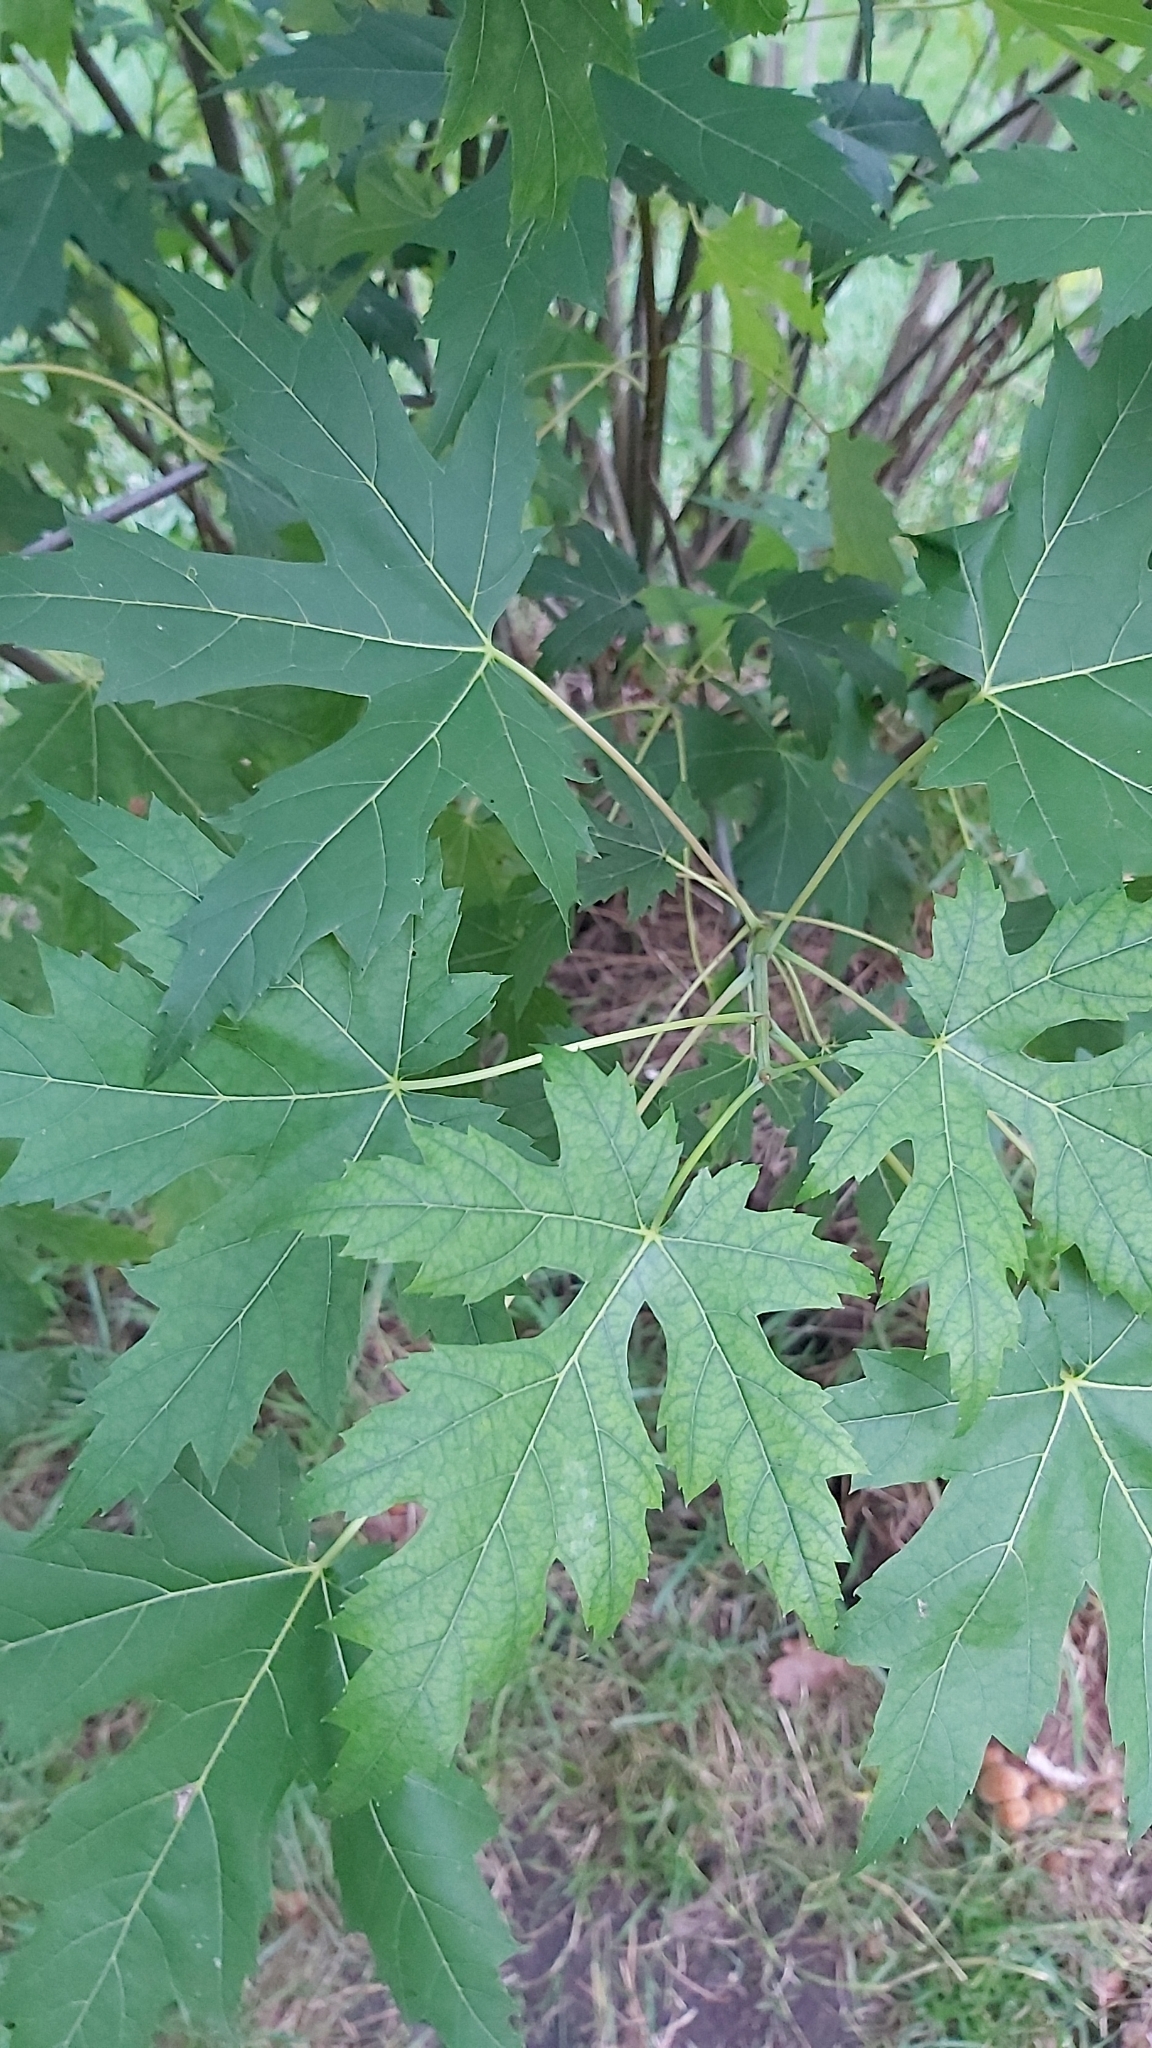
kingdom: Plantae
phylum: Tracheophyta
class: Magnoliopsida
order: Sapindales
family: Sapindaceae
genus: Acer
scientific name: Acer saccharinum
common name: Silver maple
